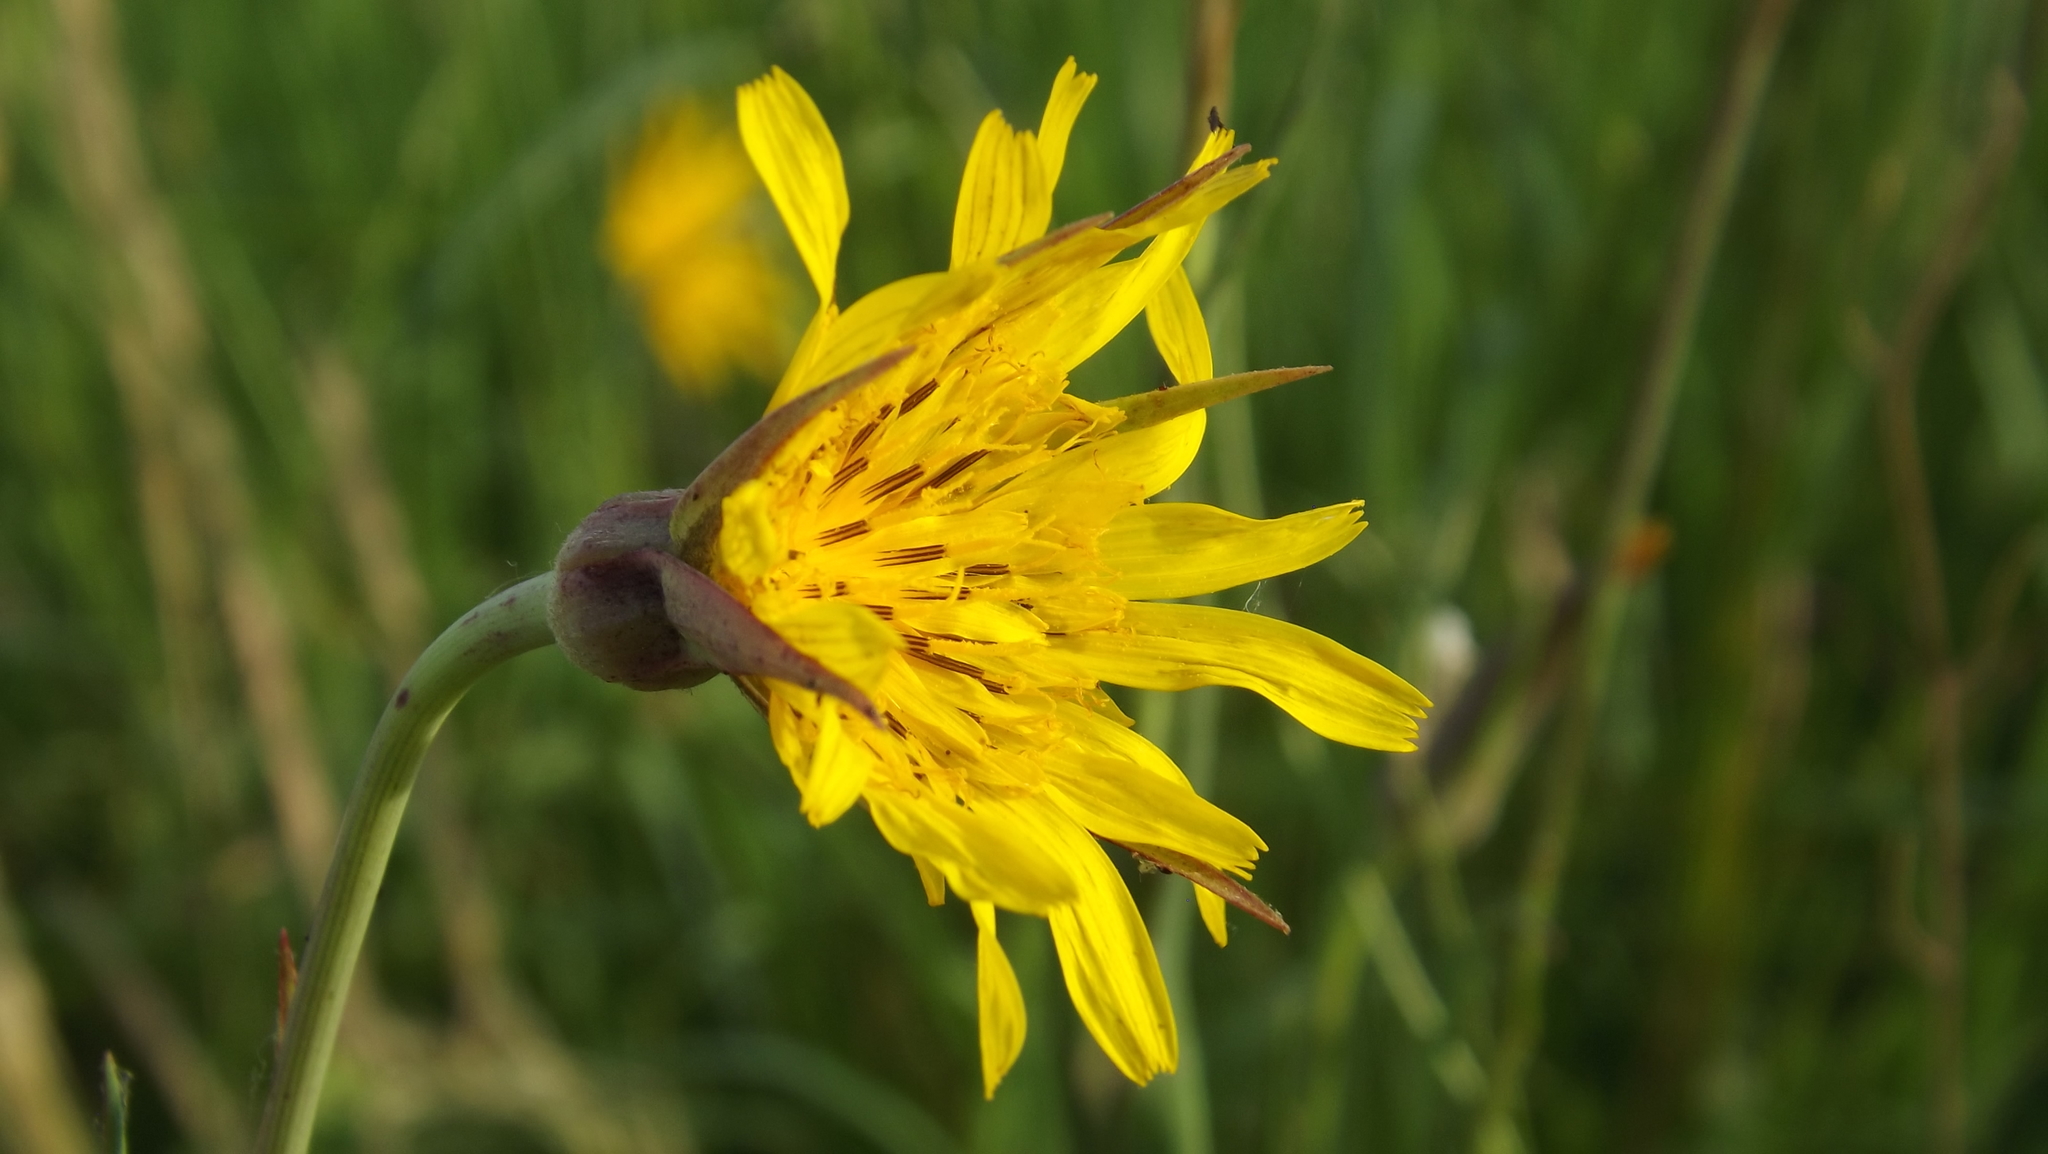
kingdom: Plantae
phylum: Tracheophyta
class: Magnoliopsida
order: Asterales
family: Asteraceae
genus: Tragopogon
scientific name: Tragopogon pratensis
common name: Goat's-beard
